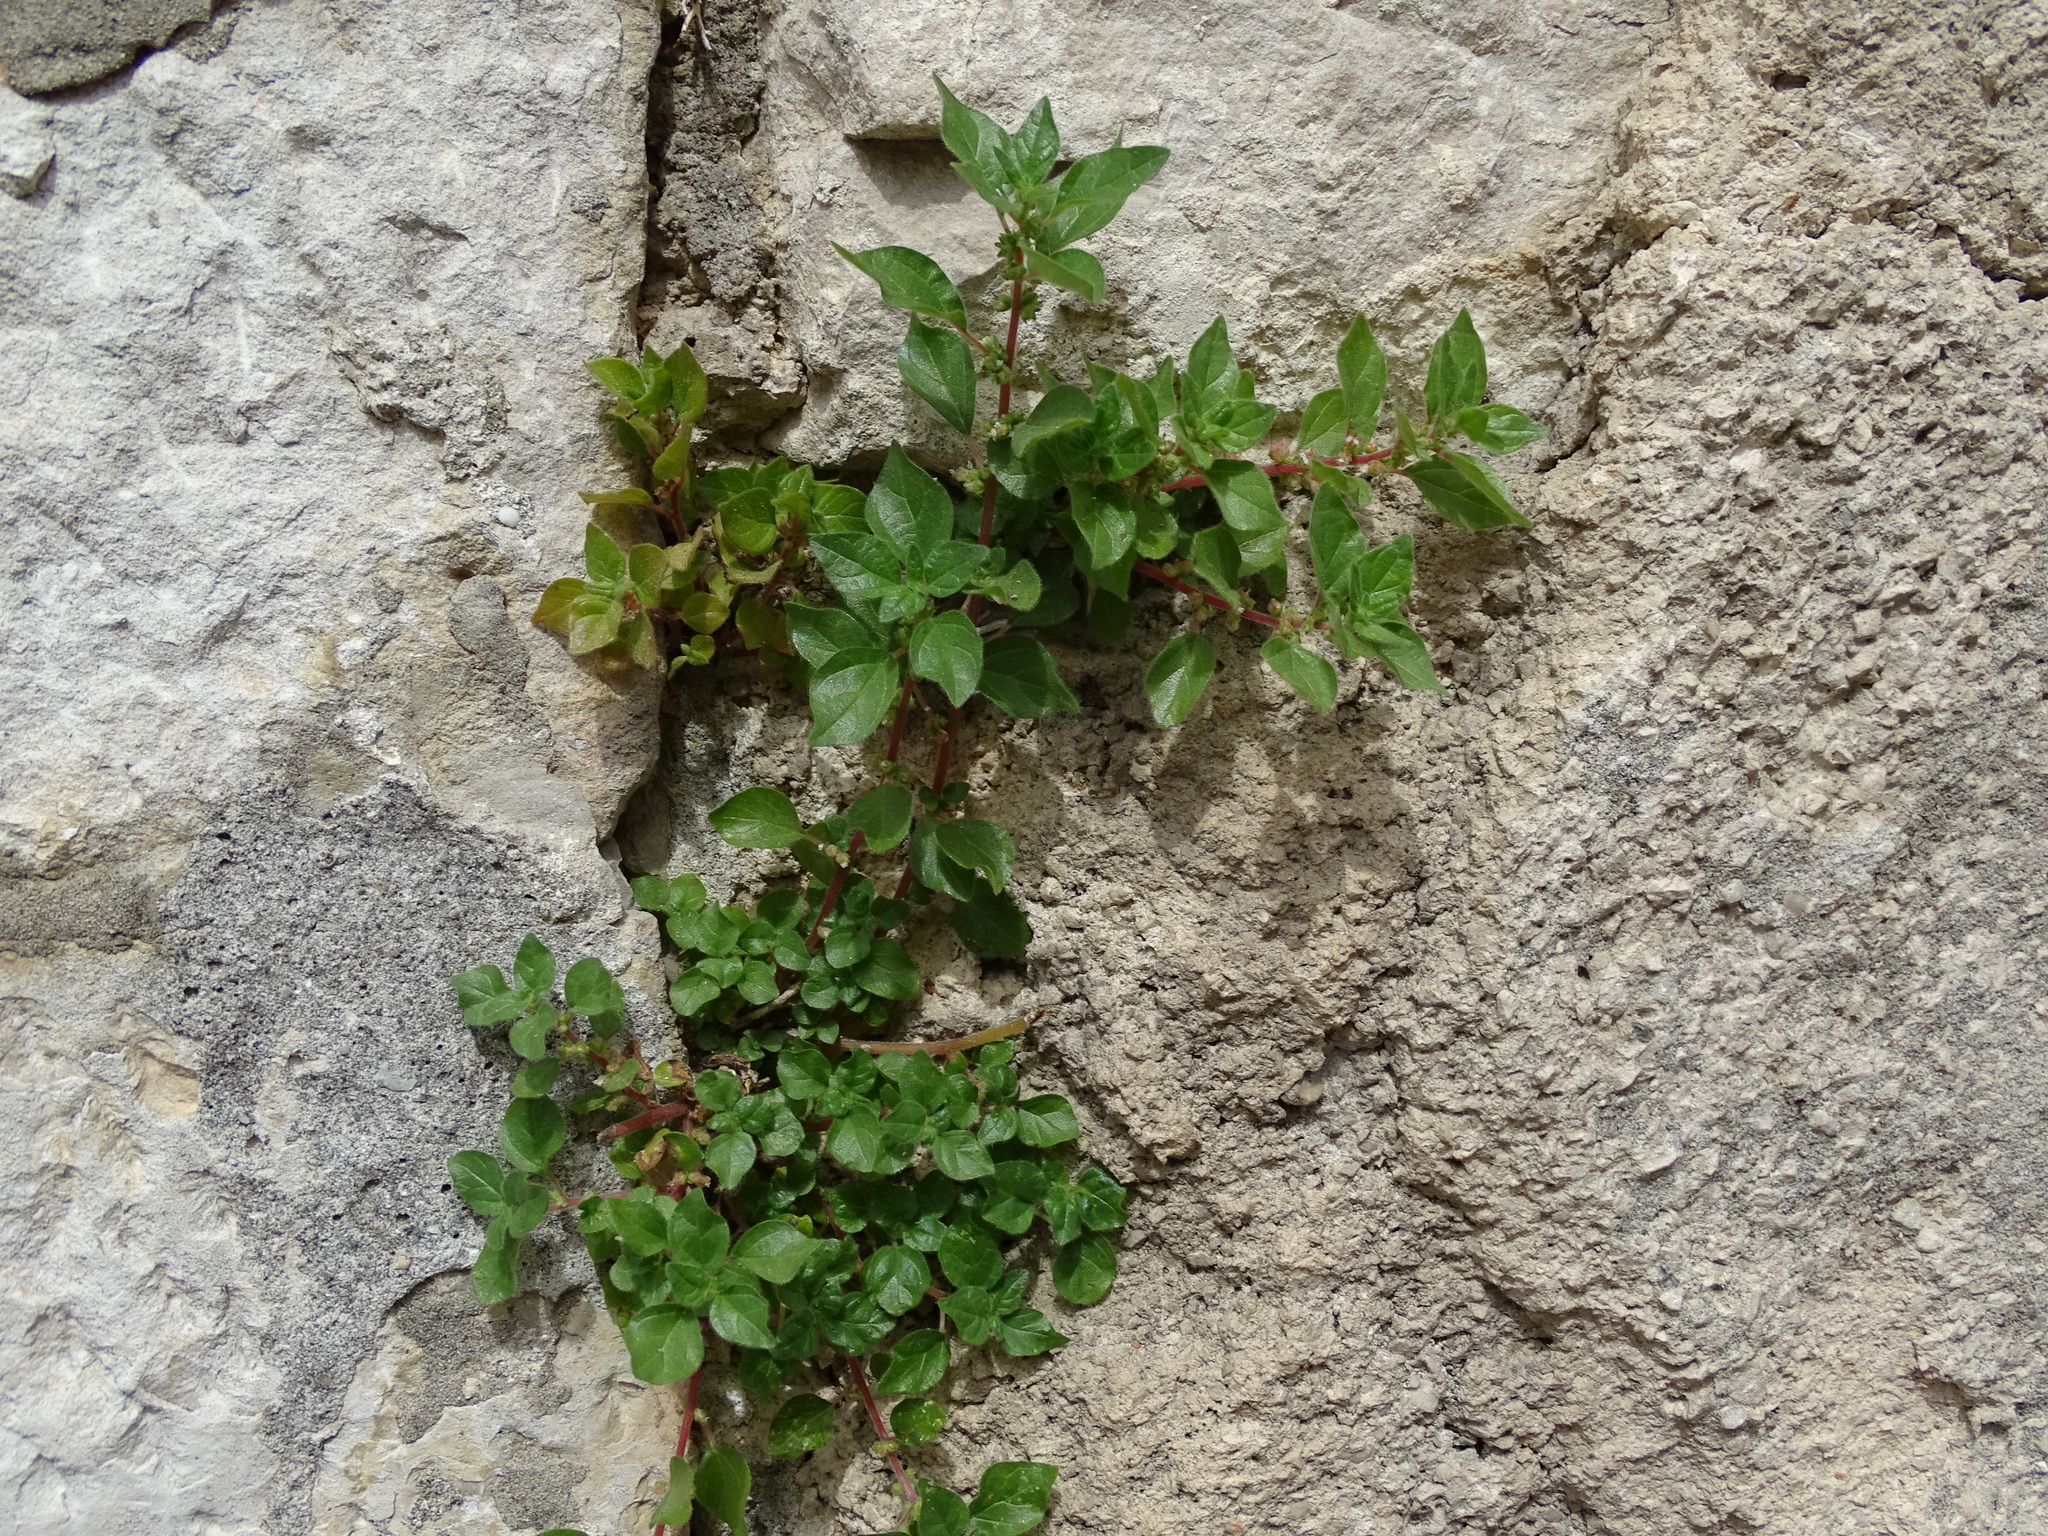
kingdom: Plantae
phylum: Tracheophyta
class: Magnoliopsida
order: Rosales
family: Urticaceae
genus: Parietaria
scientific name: Parietaria judaica
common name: Pellitory-of-the-wall
